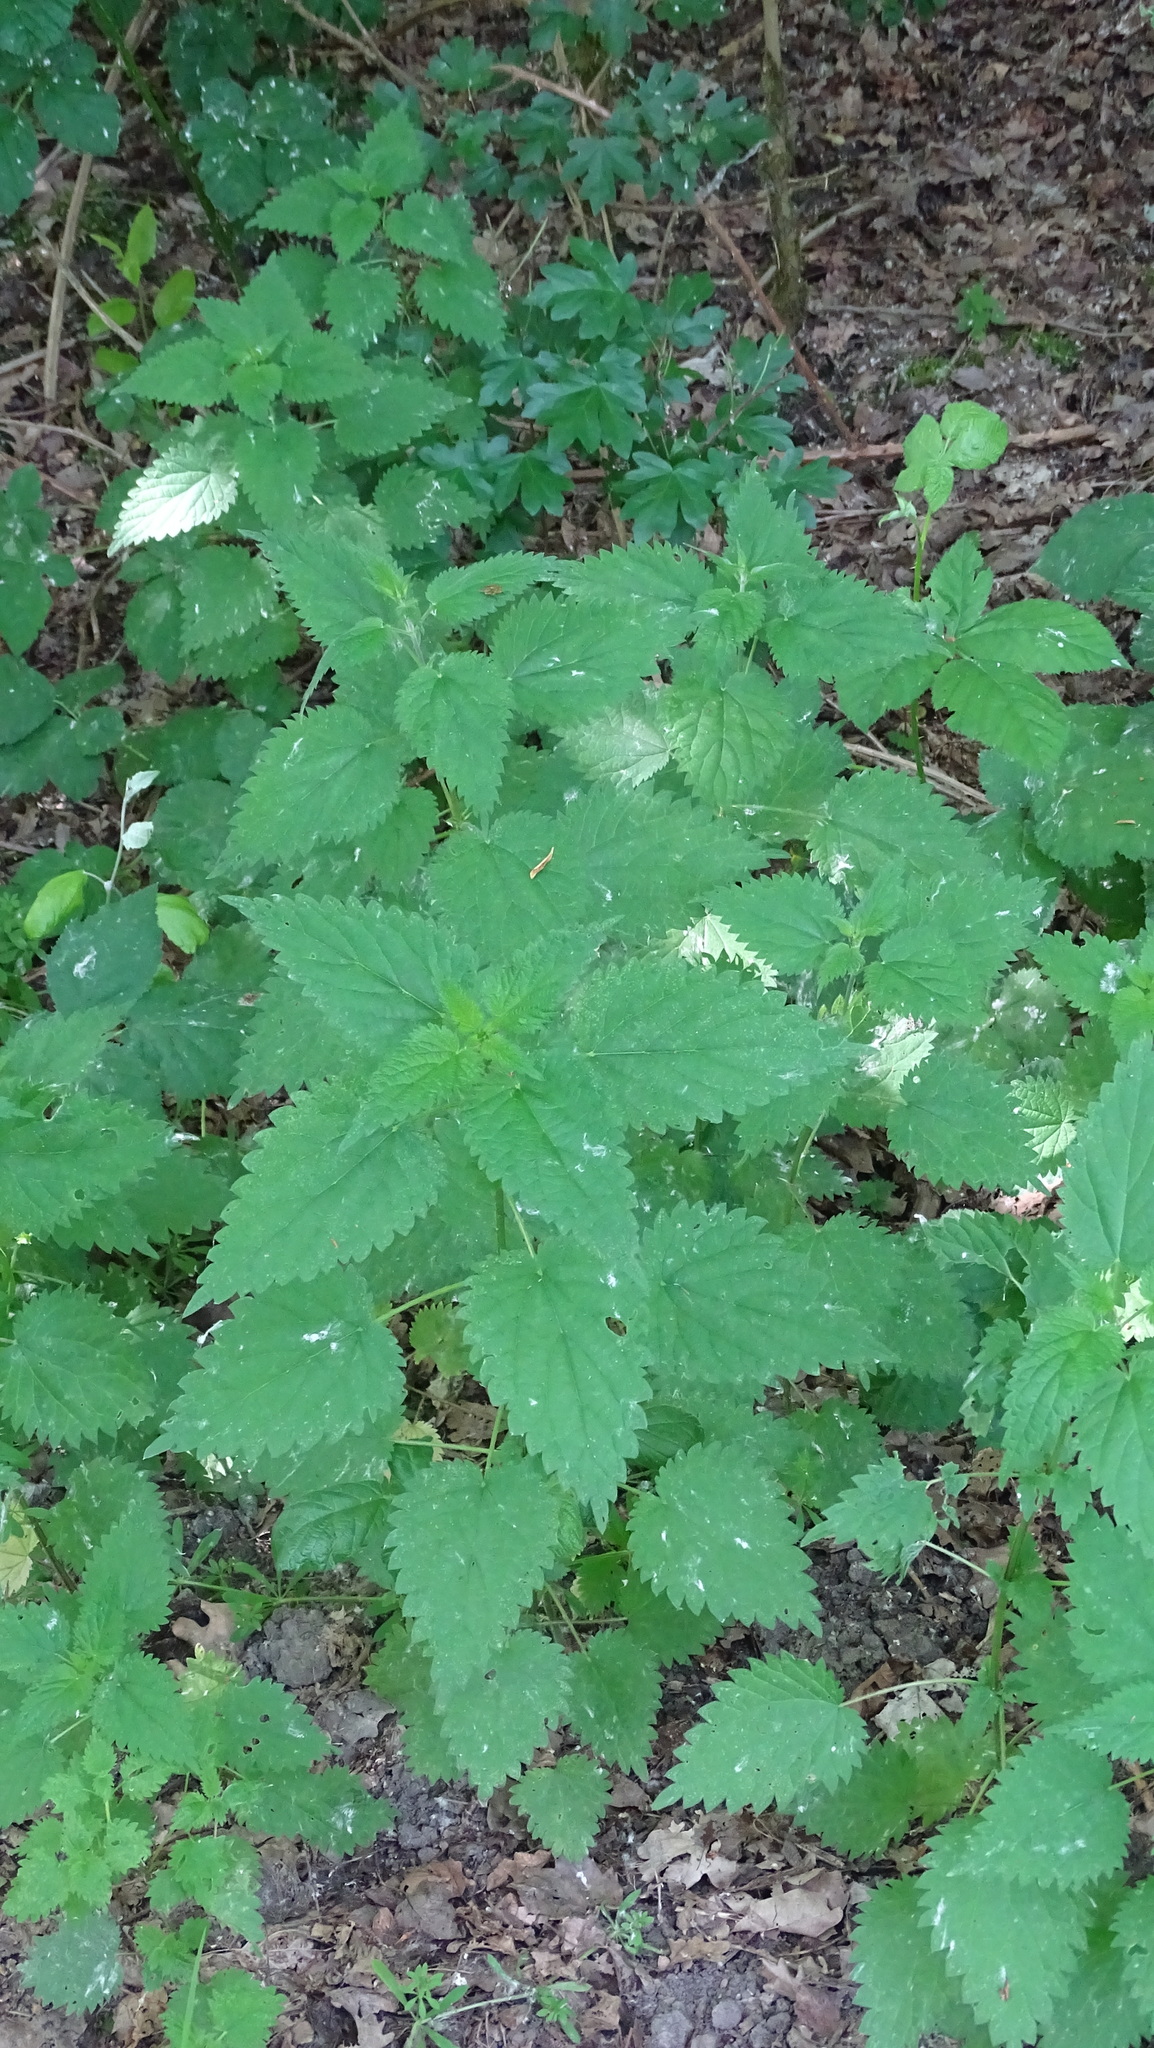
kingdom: Plantae
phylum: Tracheophyta
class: Magnoliopsida
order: Rosales
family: Urticaceae
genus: Urtica
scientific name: Urtica dioica
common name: Common nettle
